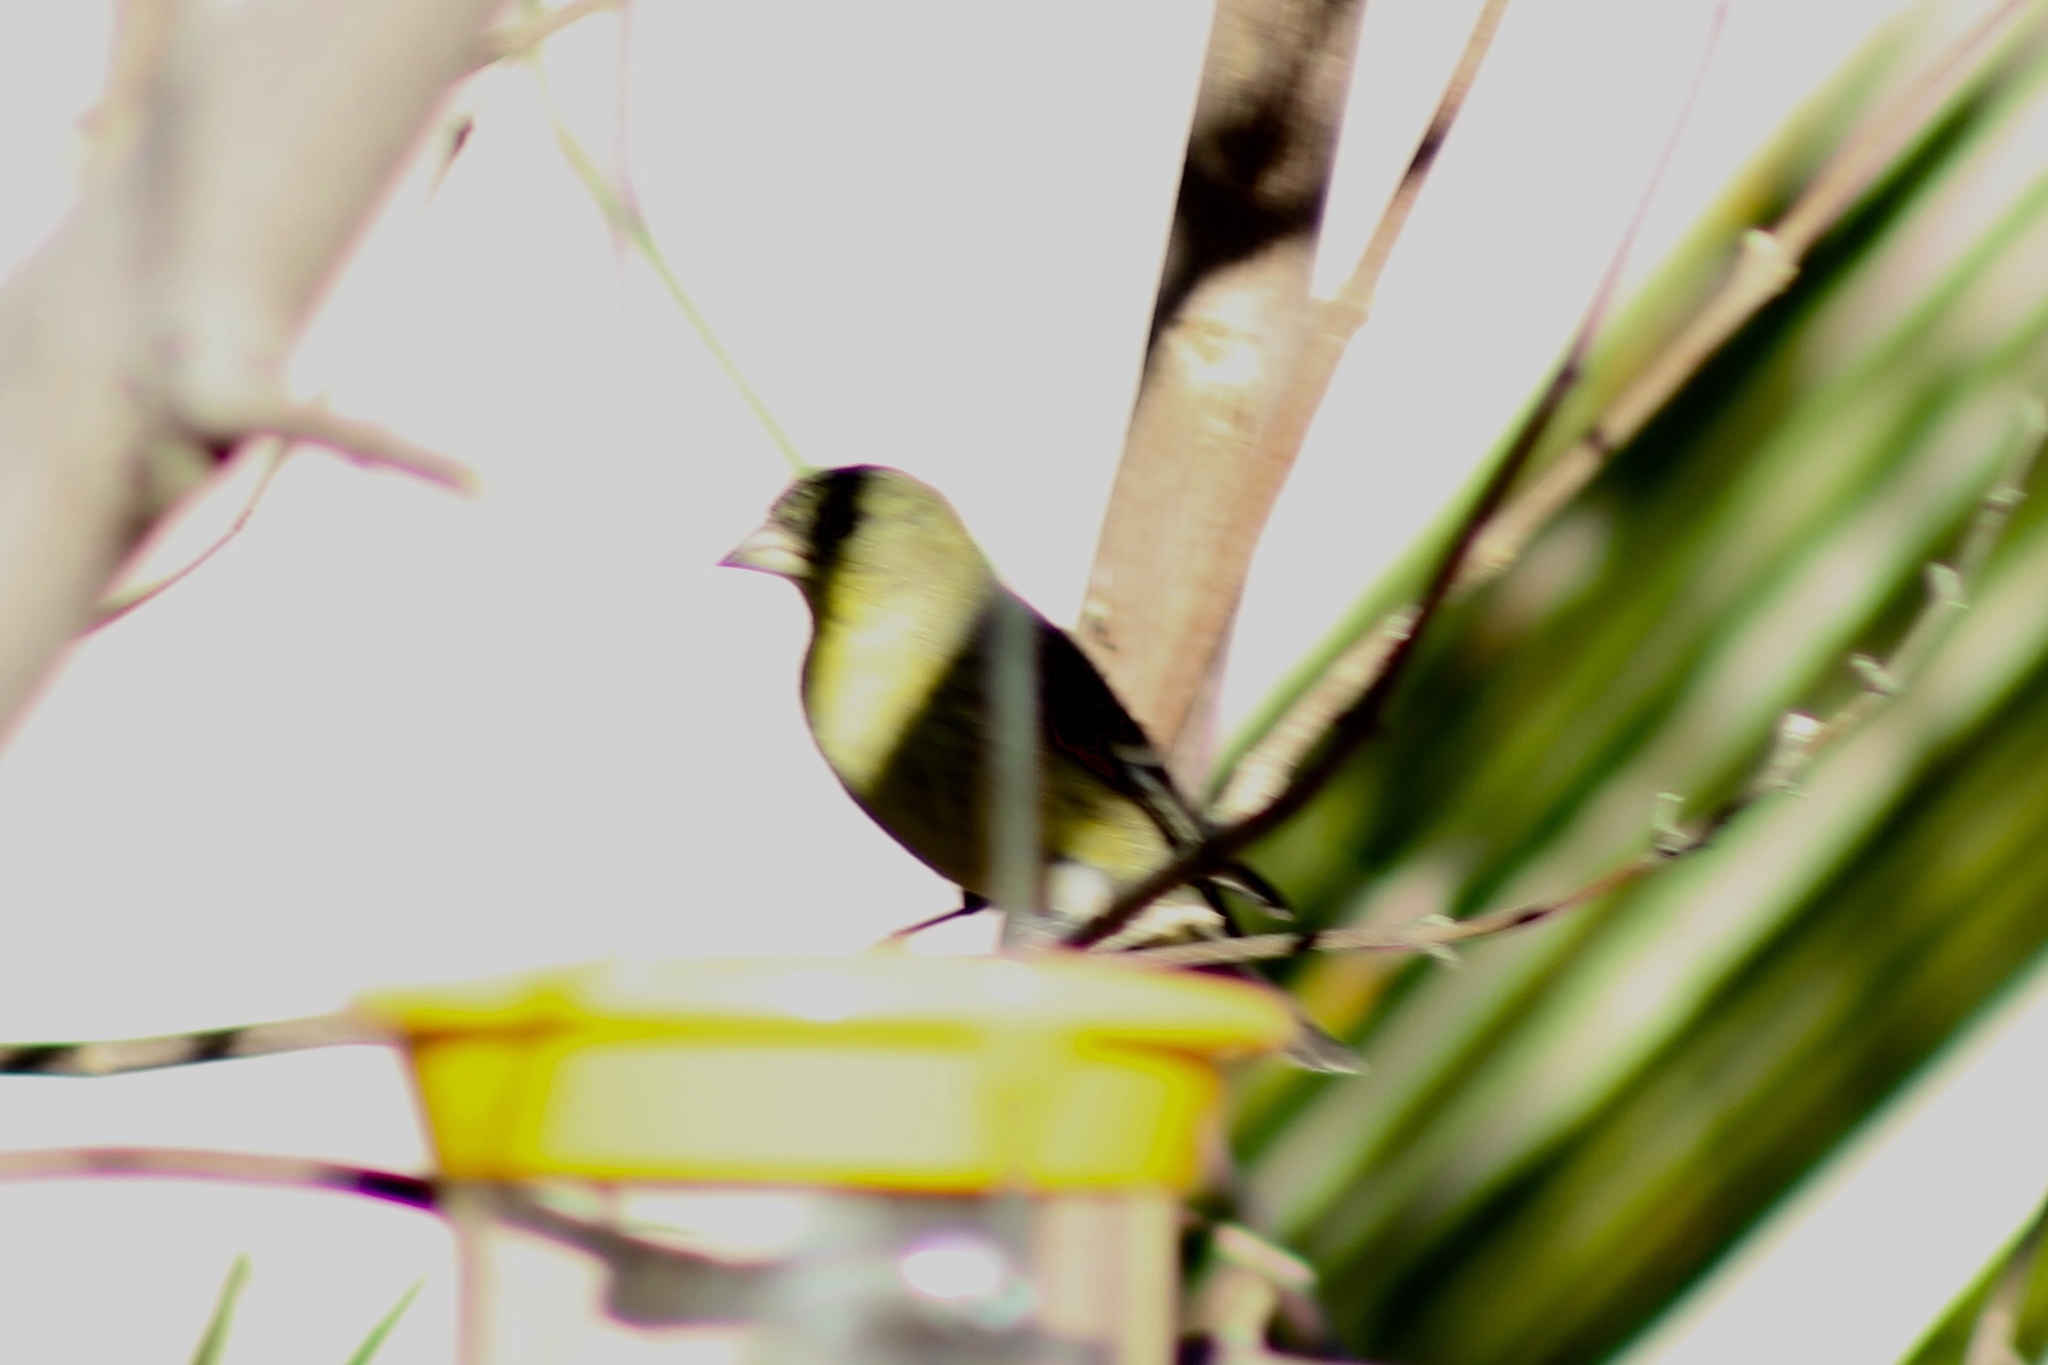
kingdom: Animalia
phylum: Chordata
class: Aves
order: Passeriformes
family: Fringillidae
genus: Spinus
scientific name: Spinus psaltria
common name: Lesser goldfinch
